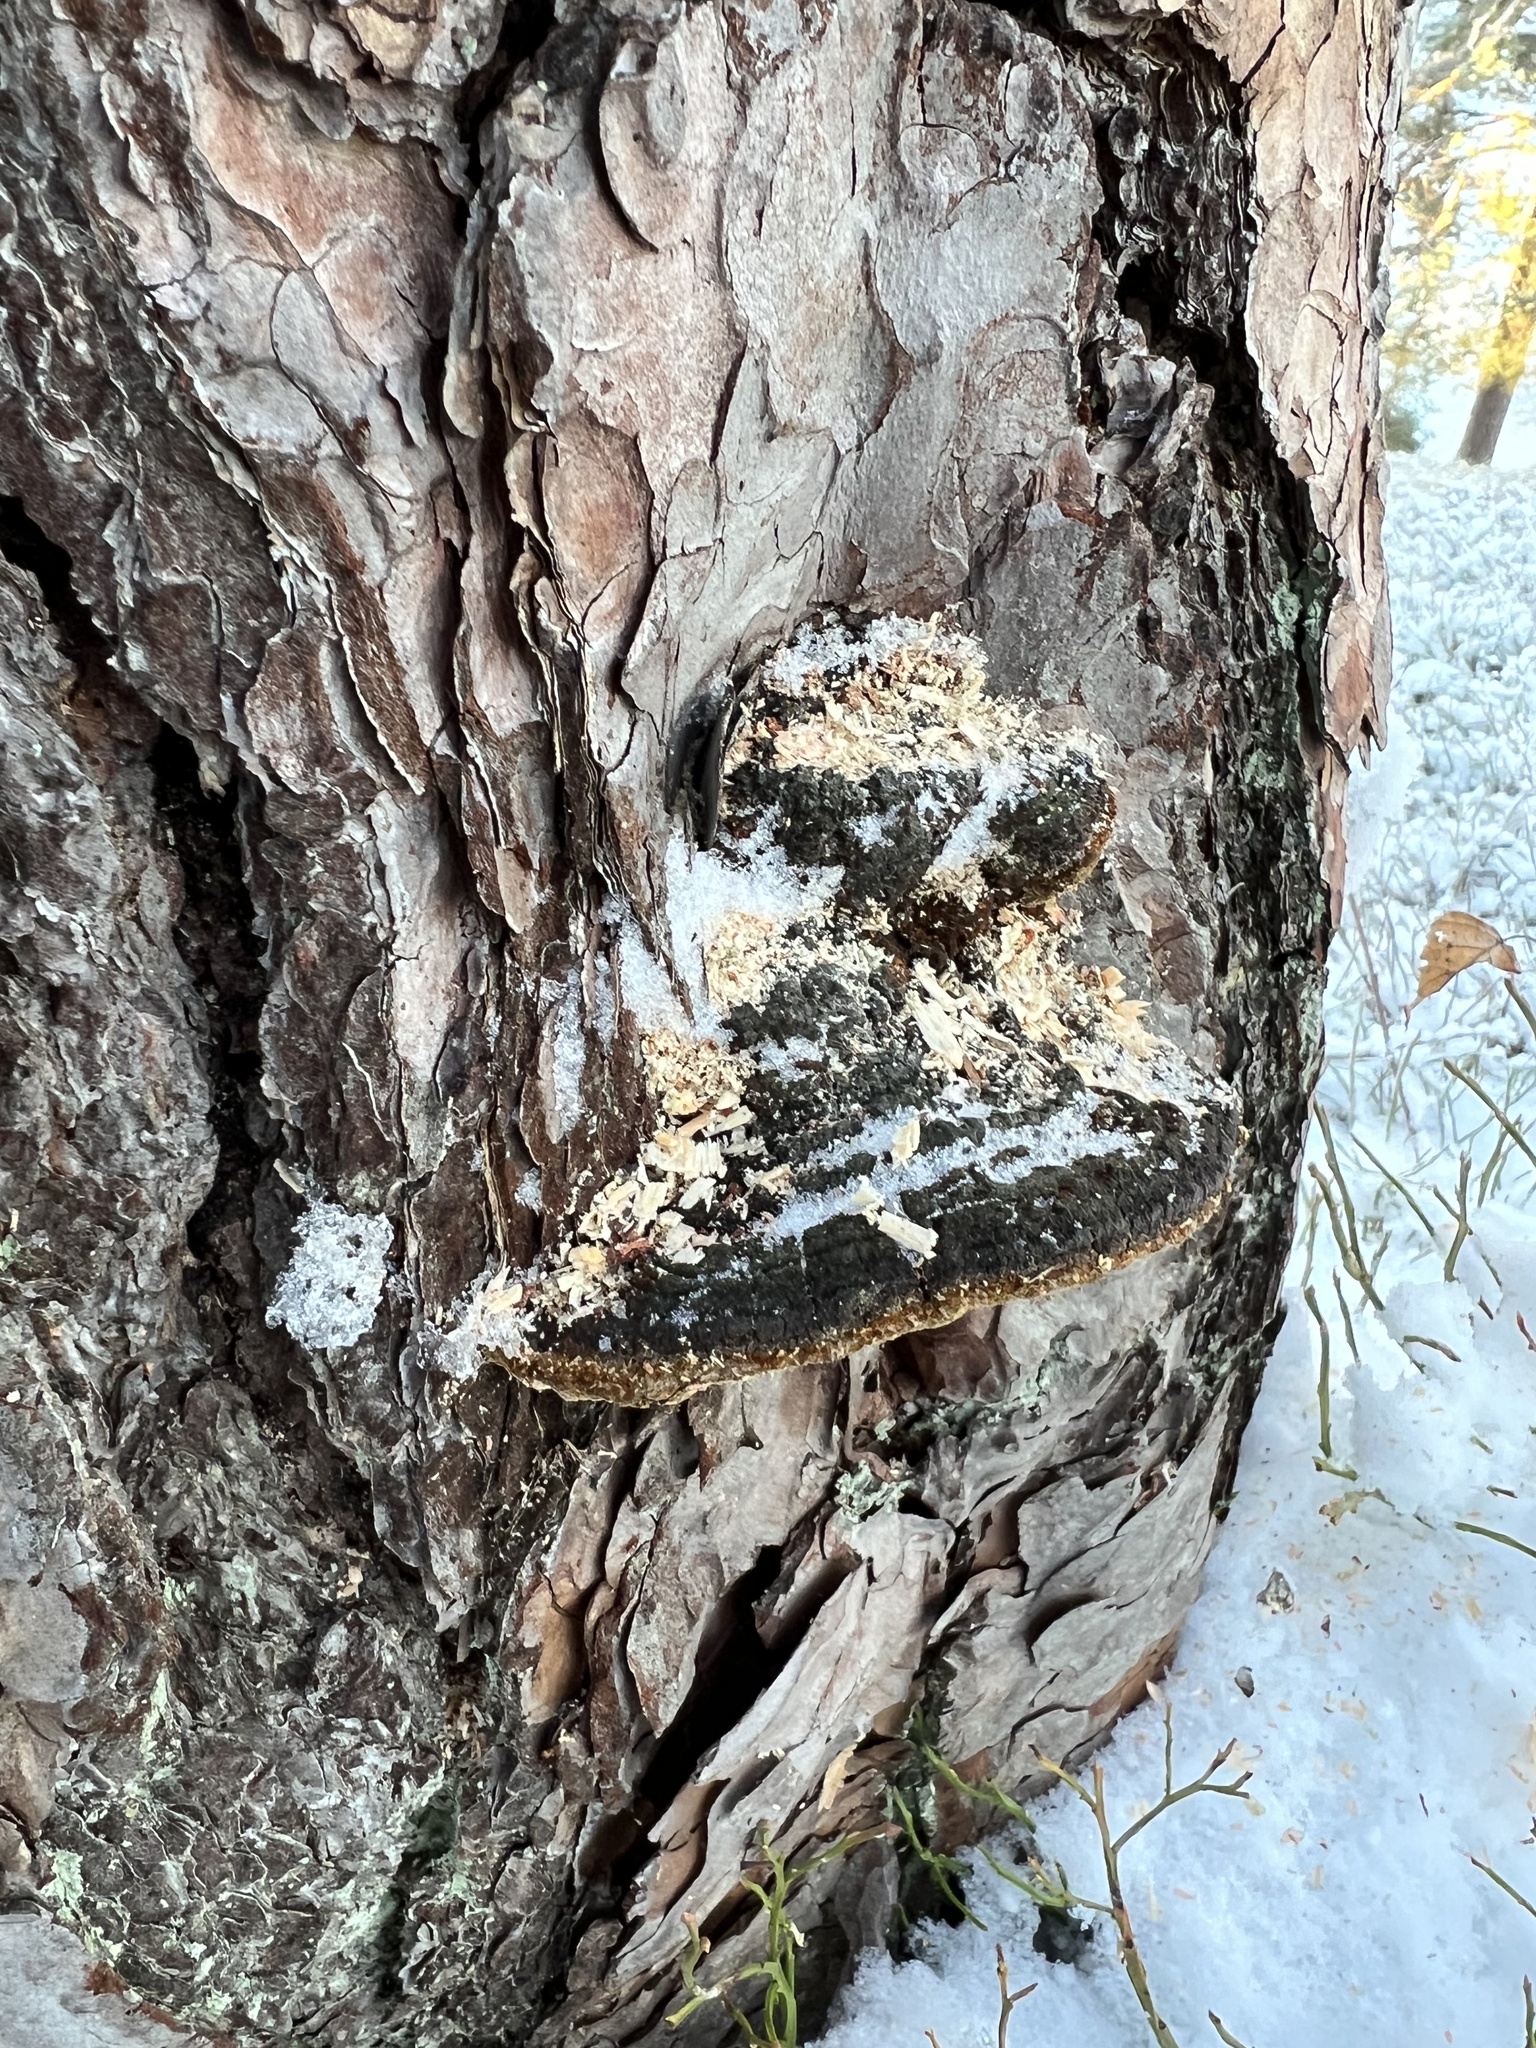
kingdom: Fungi
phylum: Basidiomycota
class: Agaricomycetes
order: Hymenochaetales
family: Hymenochaetaceae
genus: Porodaedalea
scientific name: Porodaedalea pini
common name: Pine bracket
